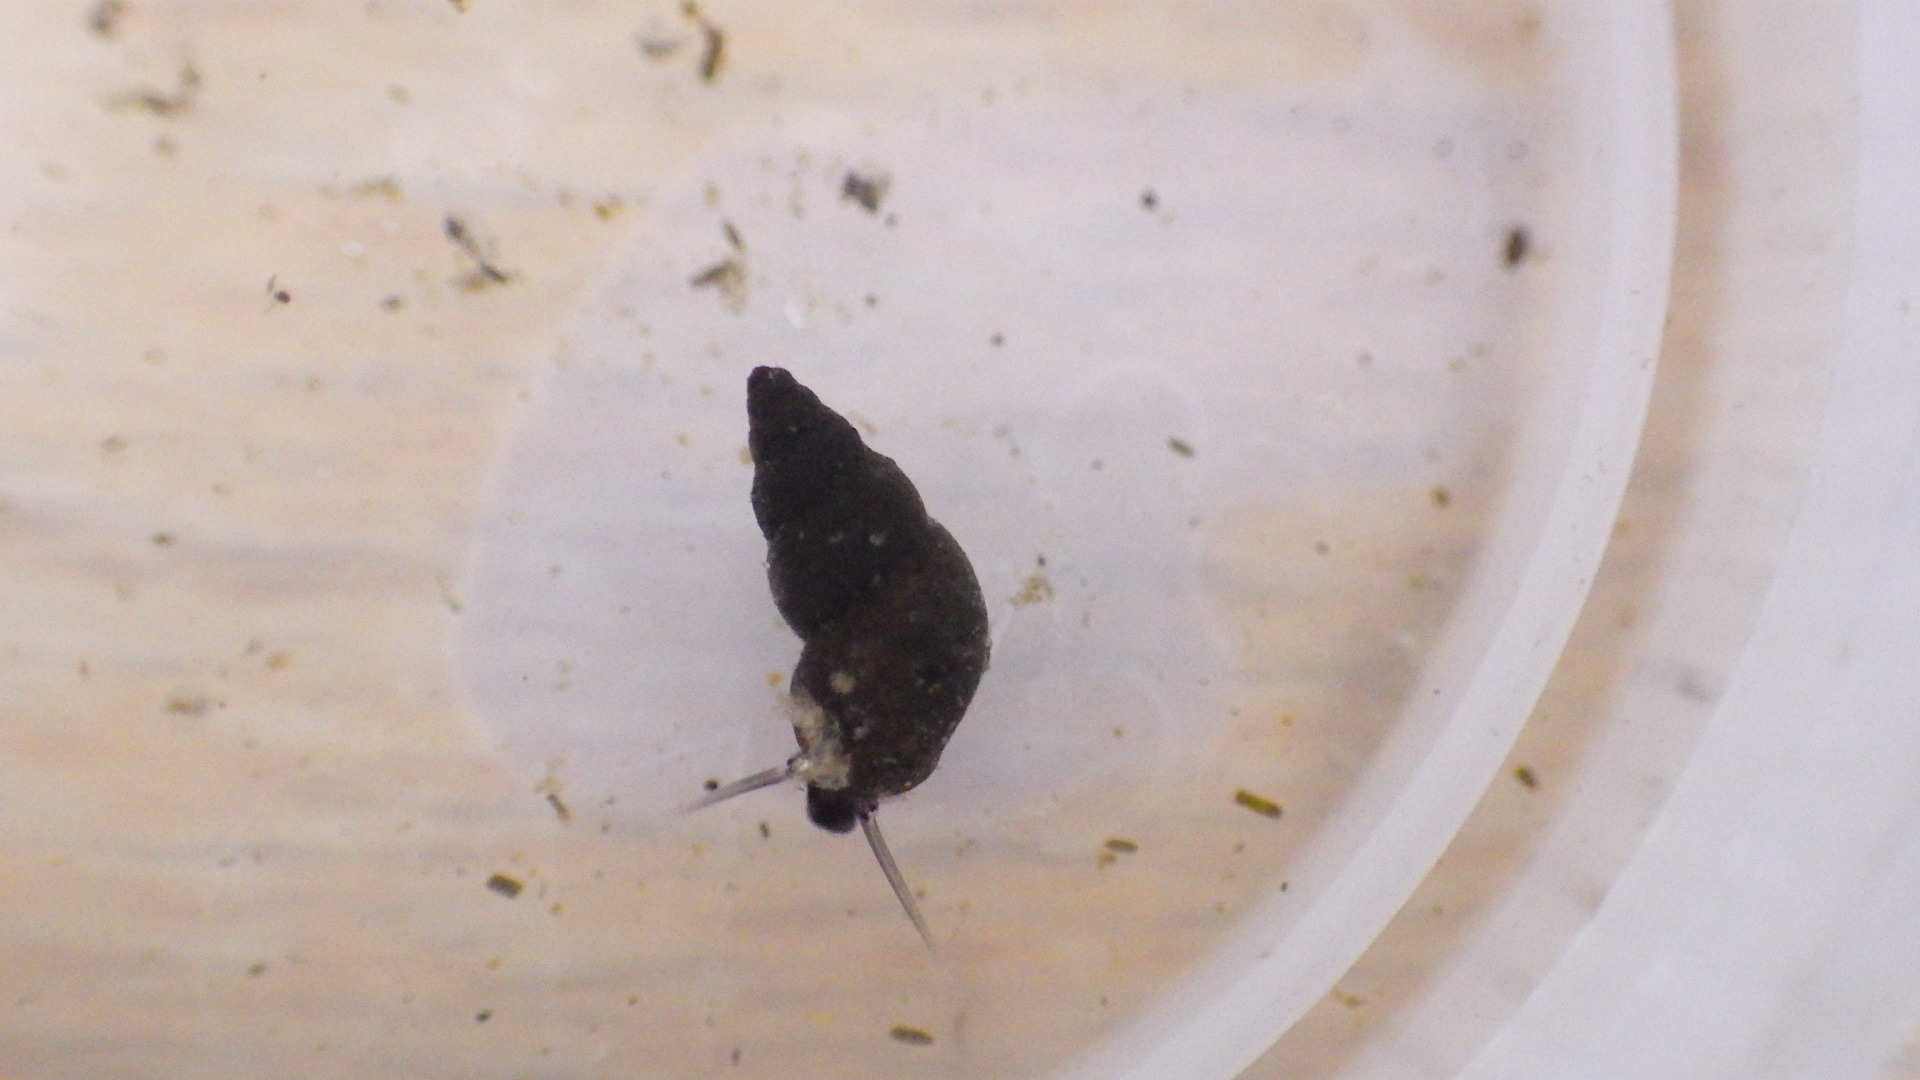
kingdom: Animalia
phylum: Mollusca
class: Gastropoda
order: Littorinimorpha
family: Tateidae
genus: Potamopyrgus
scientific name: Potamopyrgus antipodarum
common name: Jenkins' spire snail
